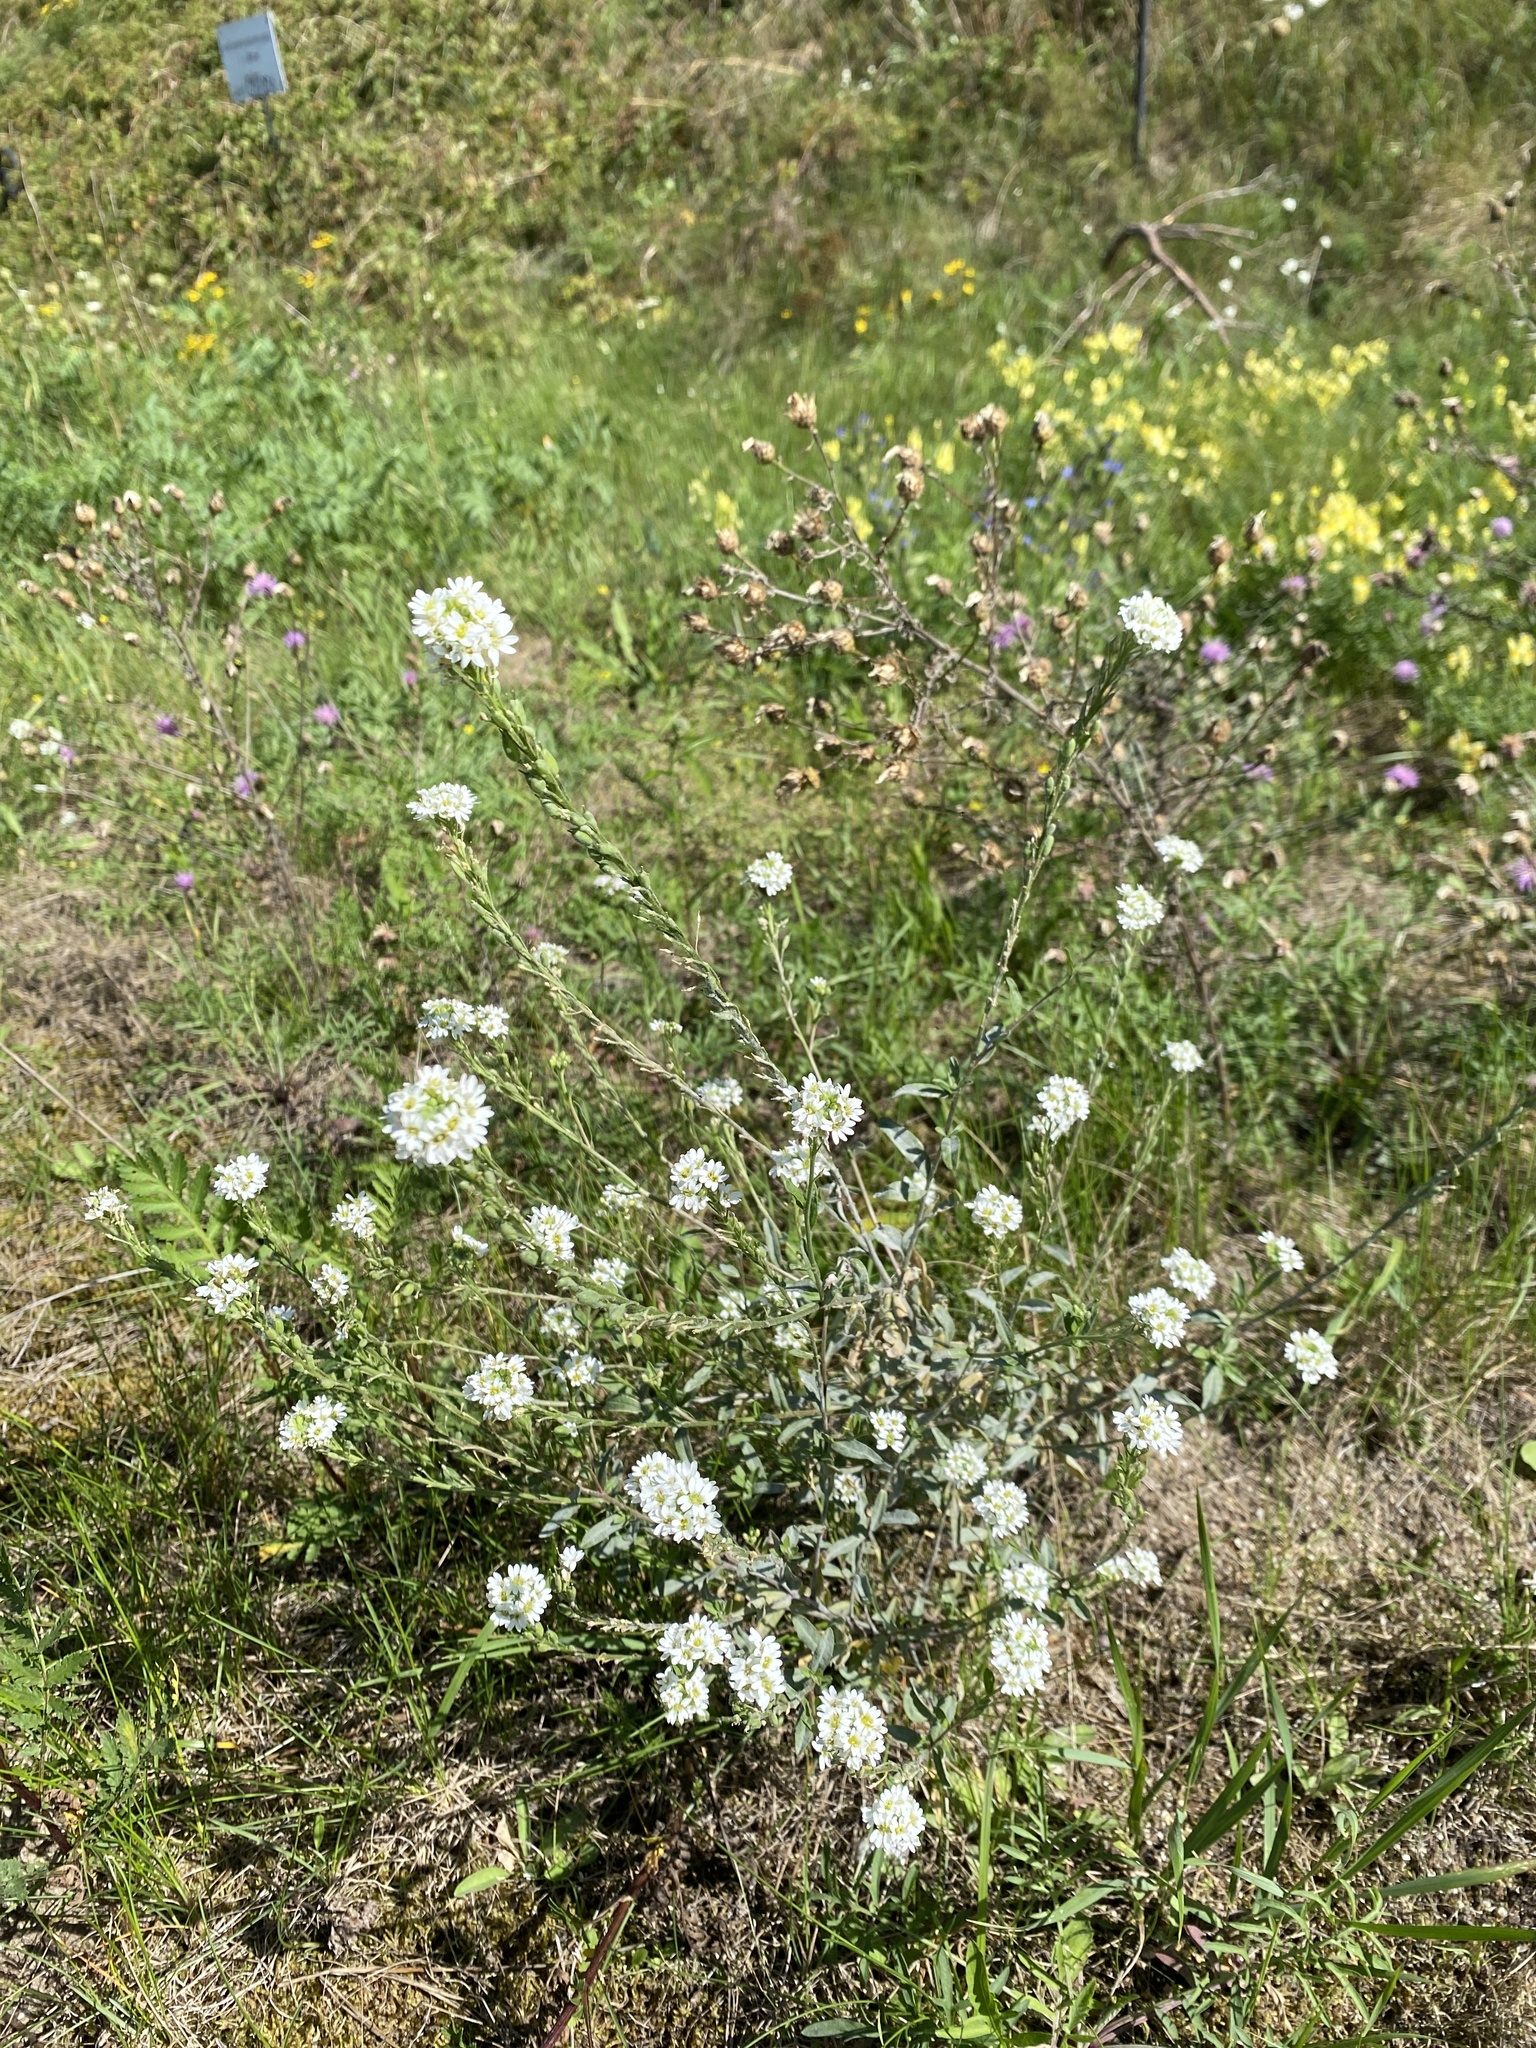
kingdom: Plantae
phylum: Tracheophyta
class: Magnoliopsida
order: Brassicales
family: Brassicaceae
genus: Berteroa
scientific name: Berteroa incana
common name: Hoary alison
